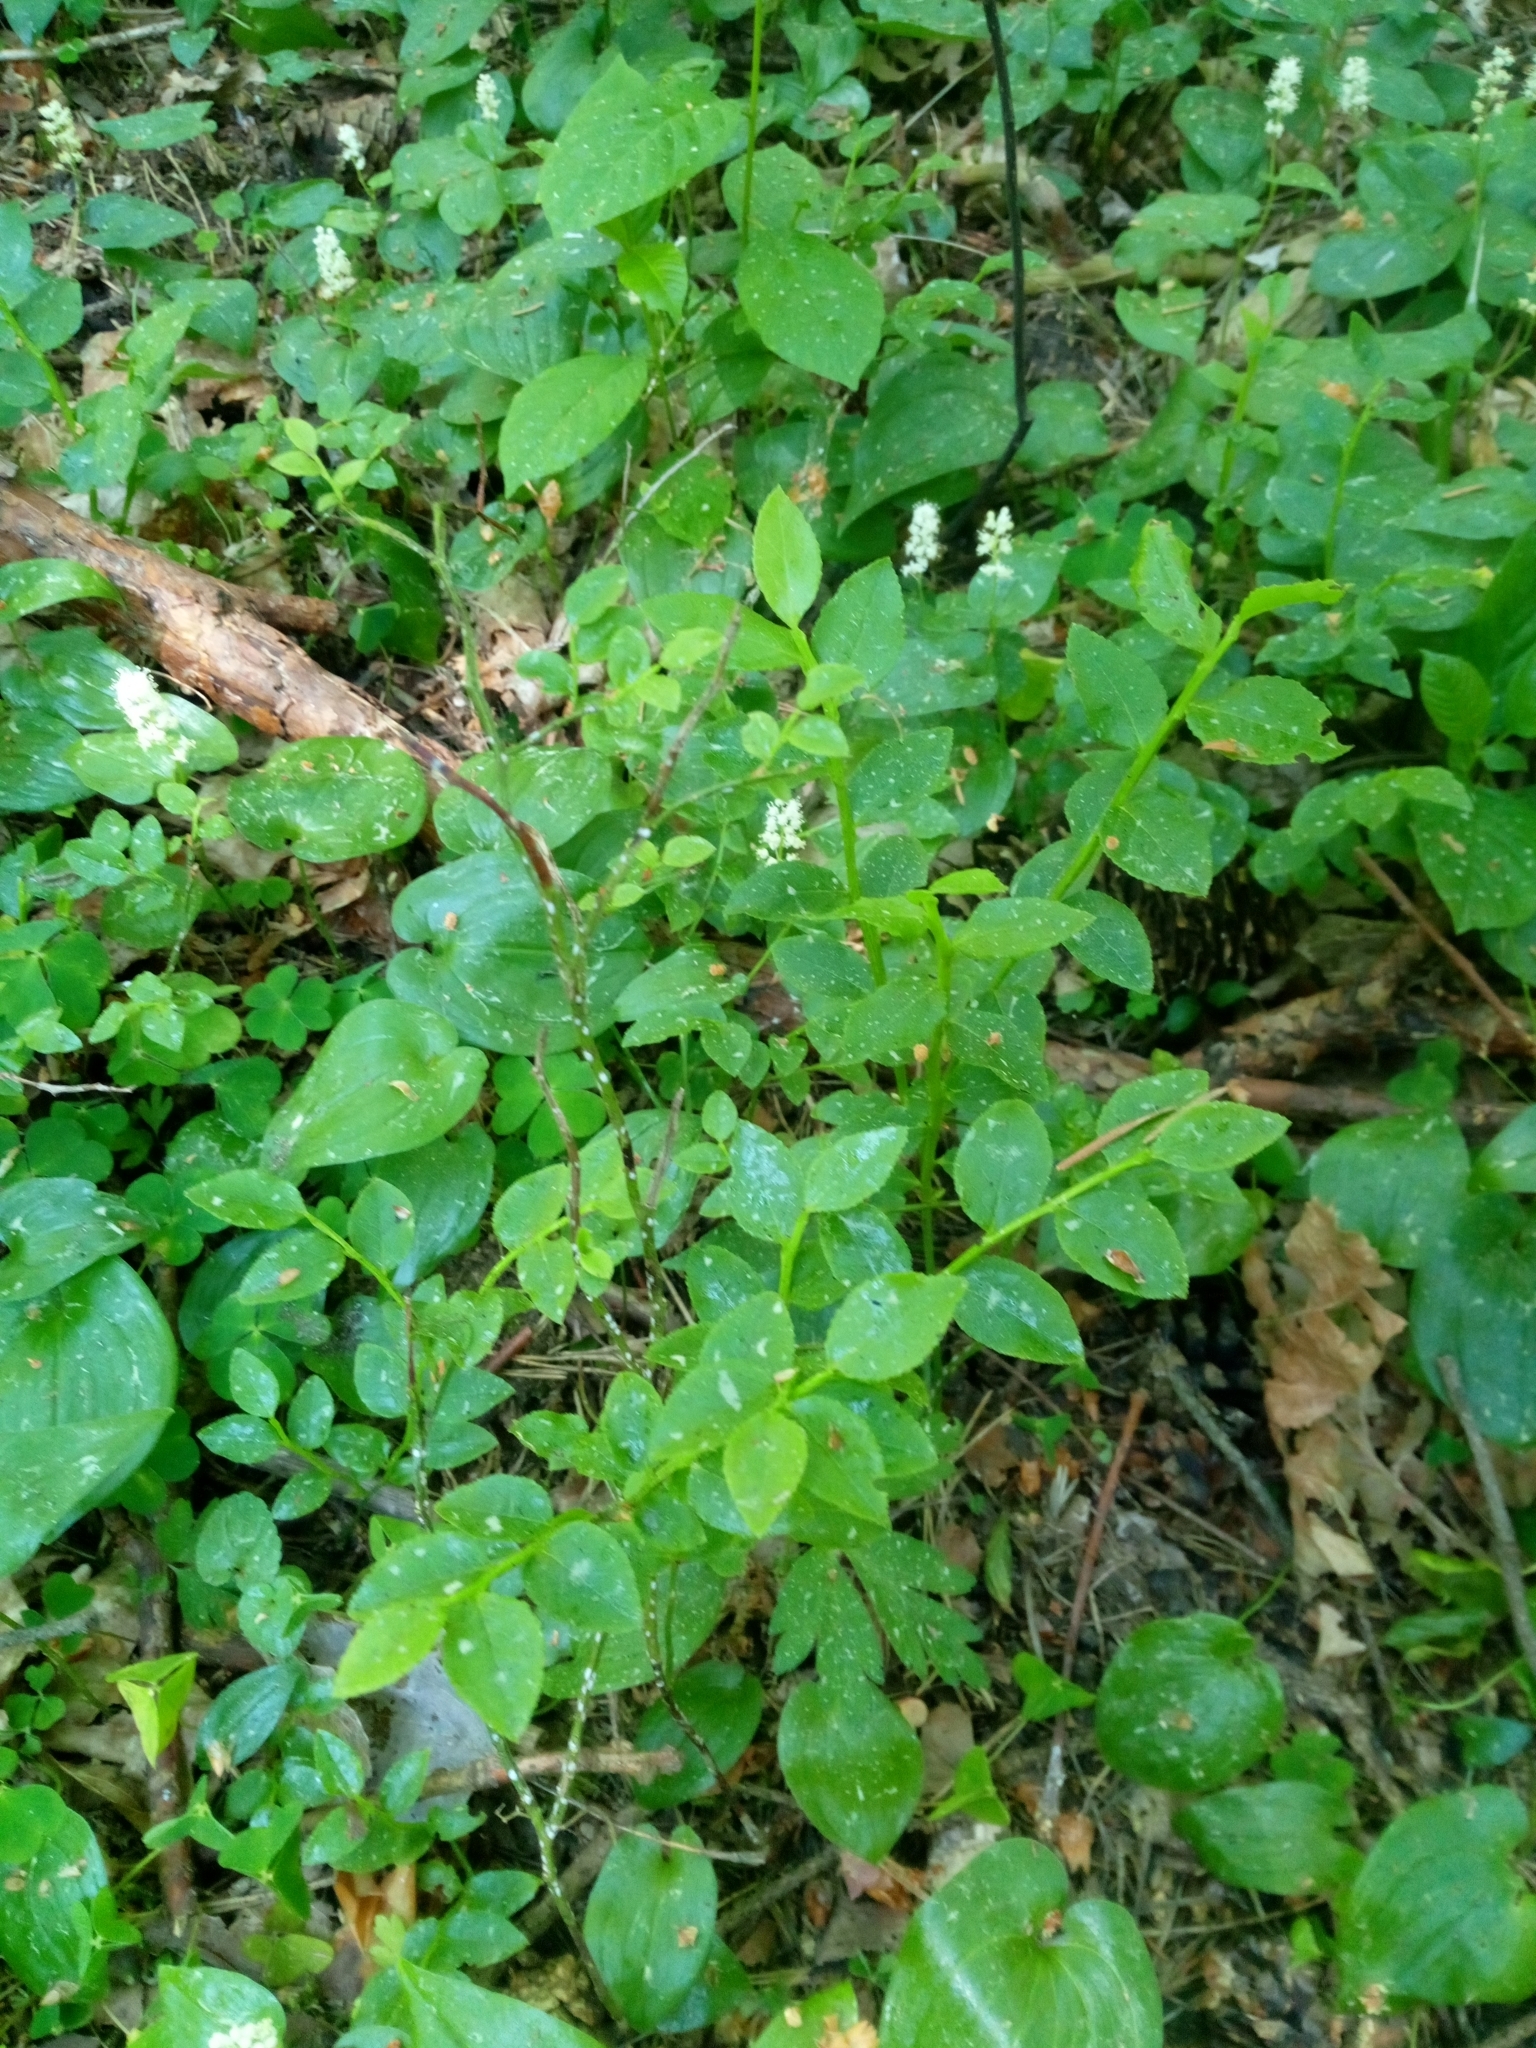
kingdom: Plantae
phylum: Tracheophyta
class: Magnoliopsida
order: Ericales
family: Ericaceae
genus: Vaccinium
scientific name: Vaccinium myrtillus
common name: Bilberry
